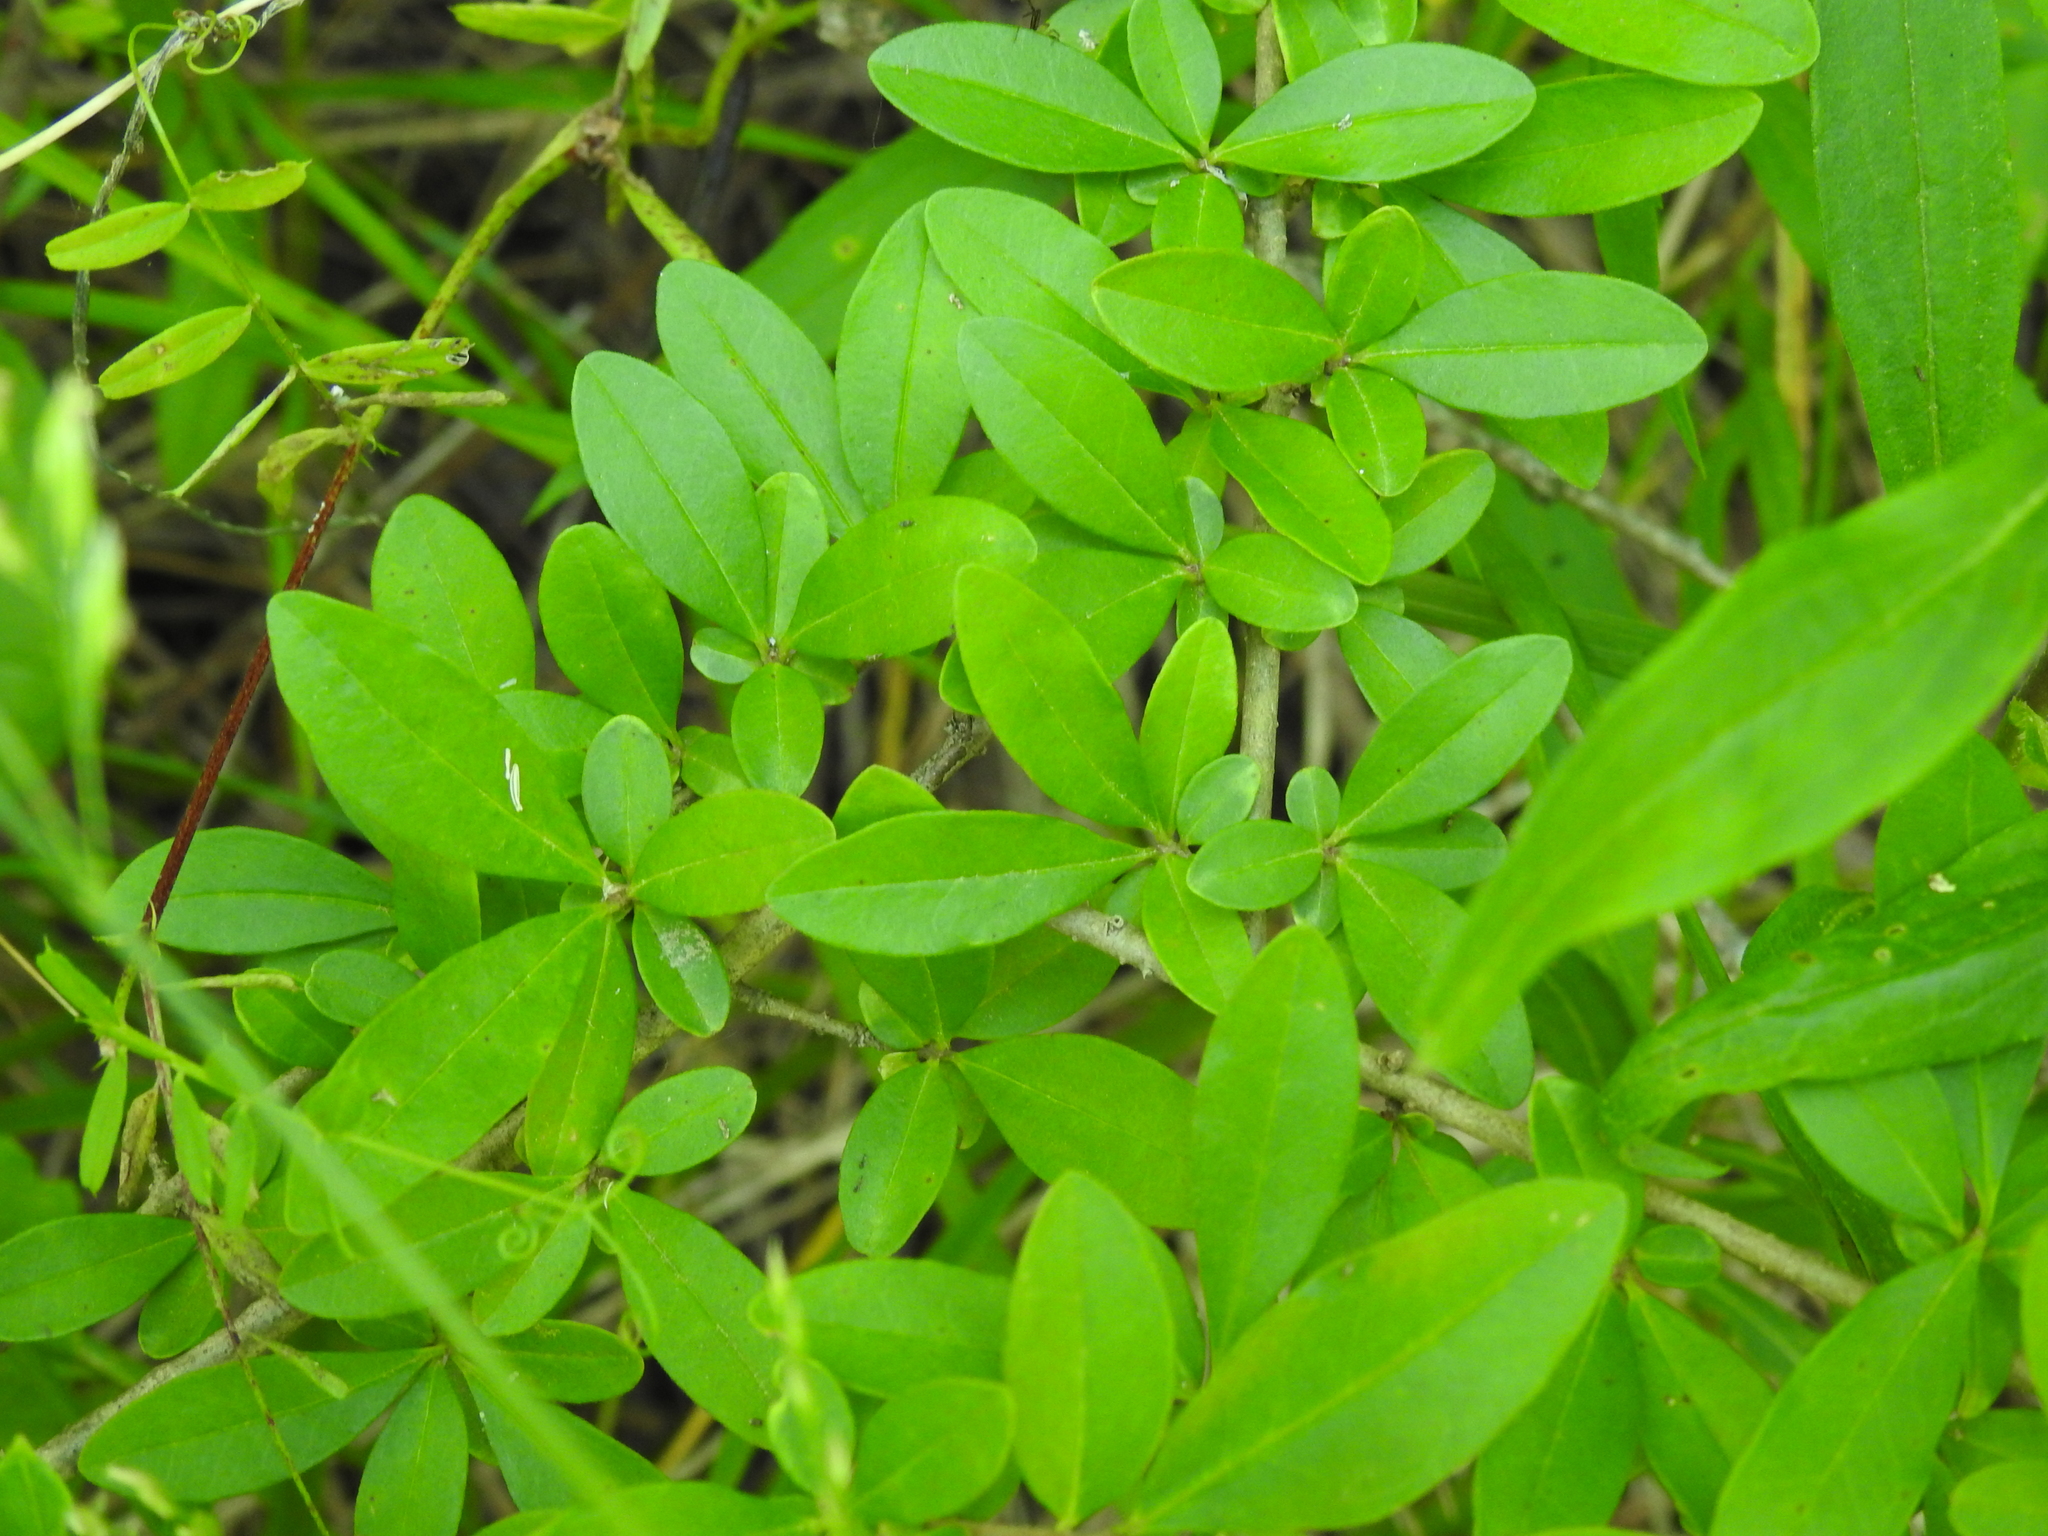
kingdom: Plantae
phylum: Tracheophyta
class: Magnoliopsida
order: Lamiales
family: Oleaceae
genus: Ligustrum
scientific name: Ligustrum obtusifolium
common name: Border privet
